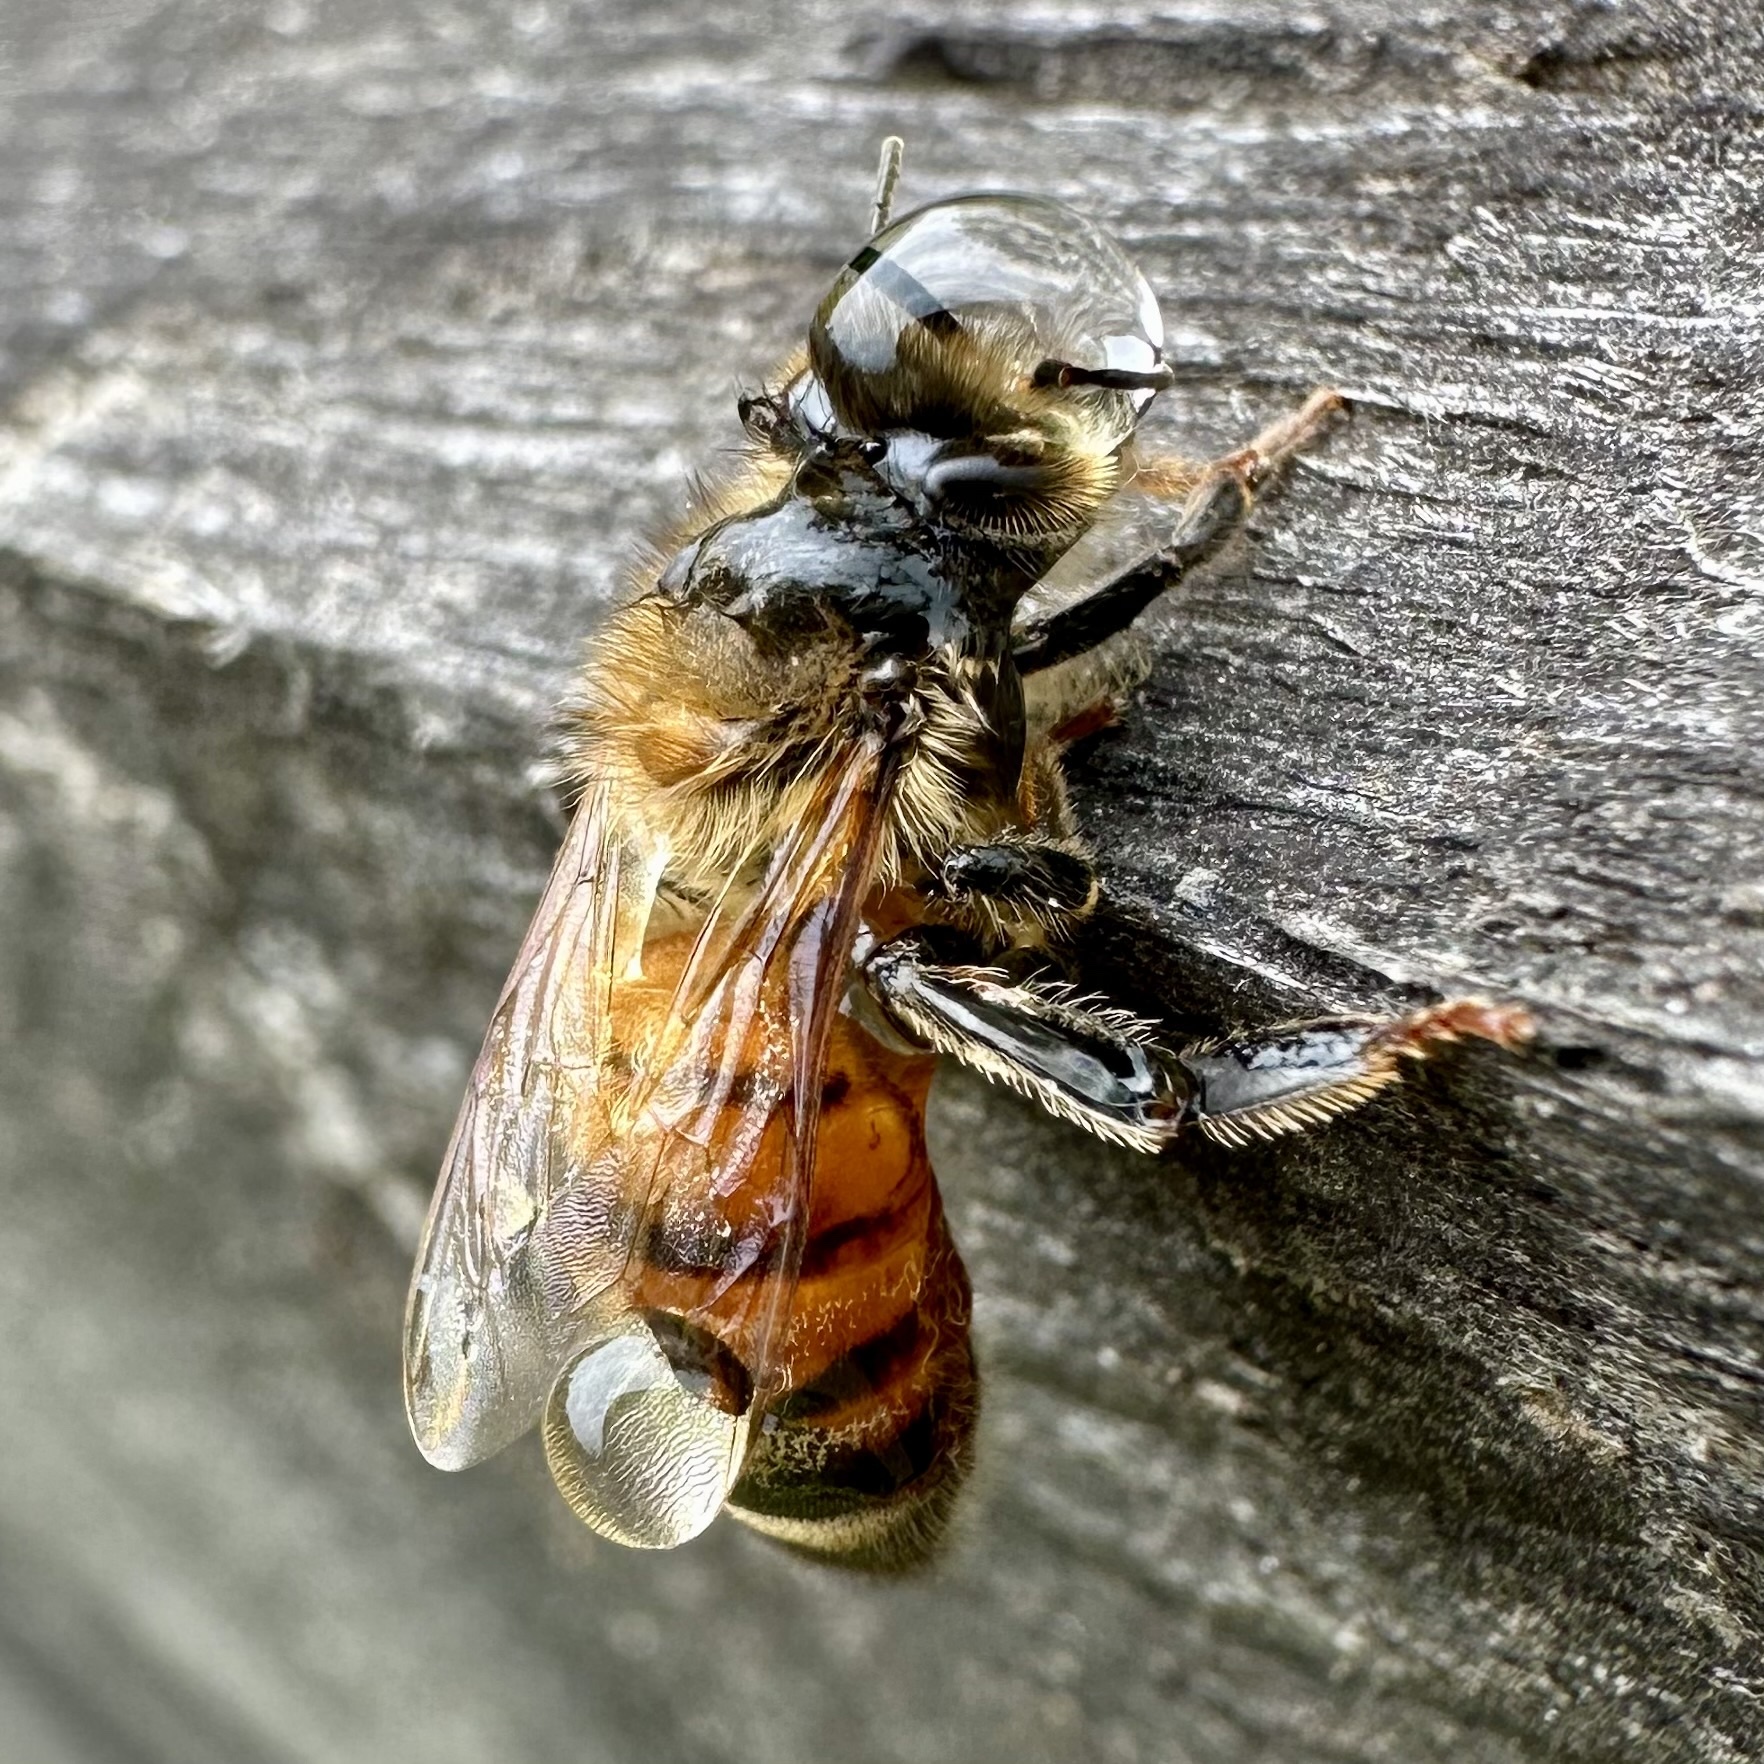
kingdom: Animalia
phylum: Arthropoda
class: Insecta
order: Hymenoptera
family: Apidae
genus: Apis
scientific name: Apis mellifera
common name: Honey bee
